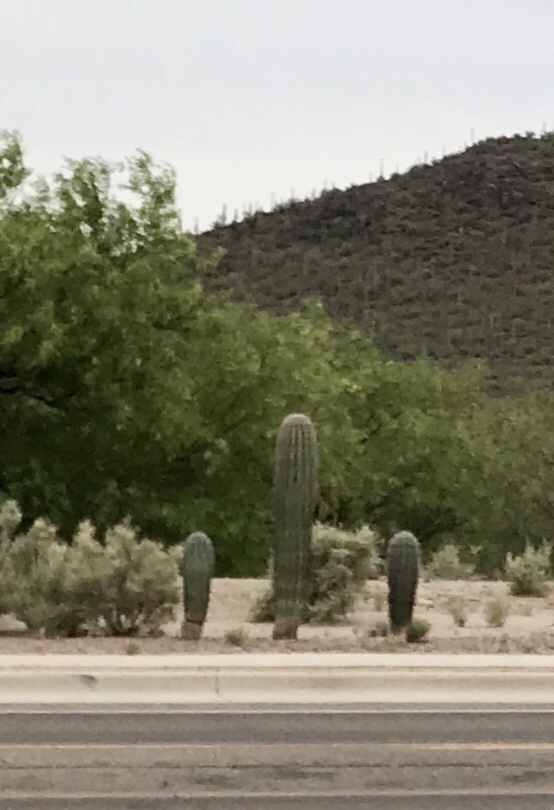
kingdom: Plantae
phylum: Tracheophyta
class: Magnoliopsida
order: Caryophyllales
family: Cactaceae
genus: Carnegiea
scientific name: Carnegiea gigantea
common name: Saguaro
